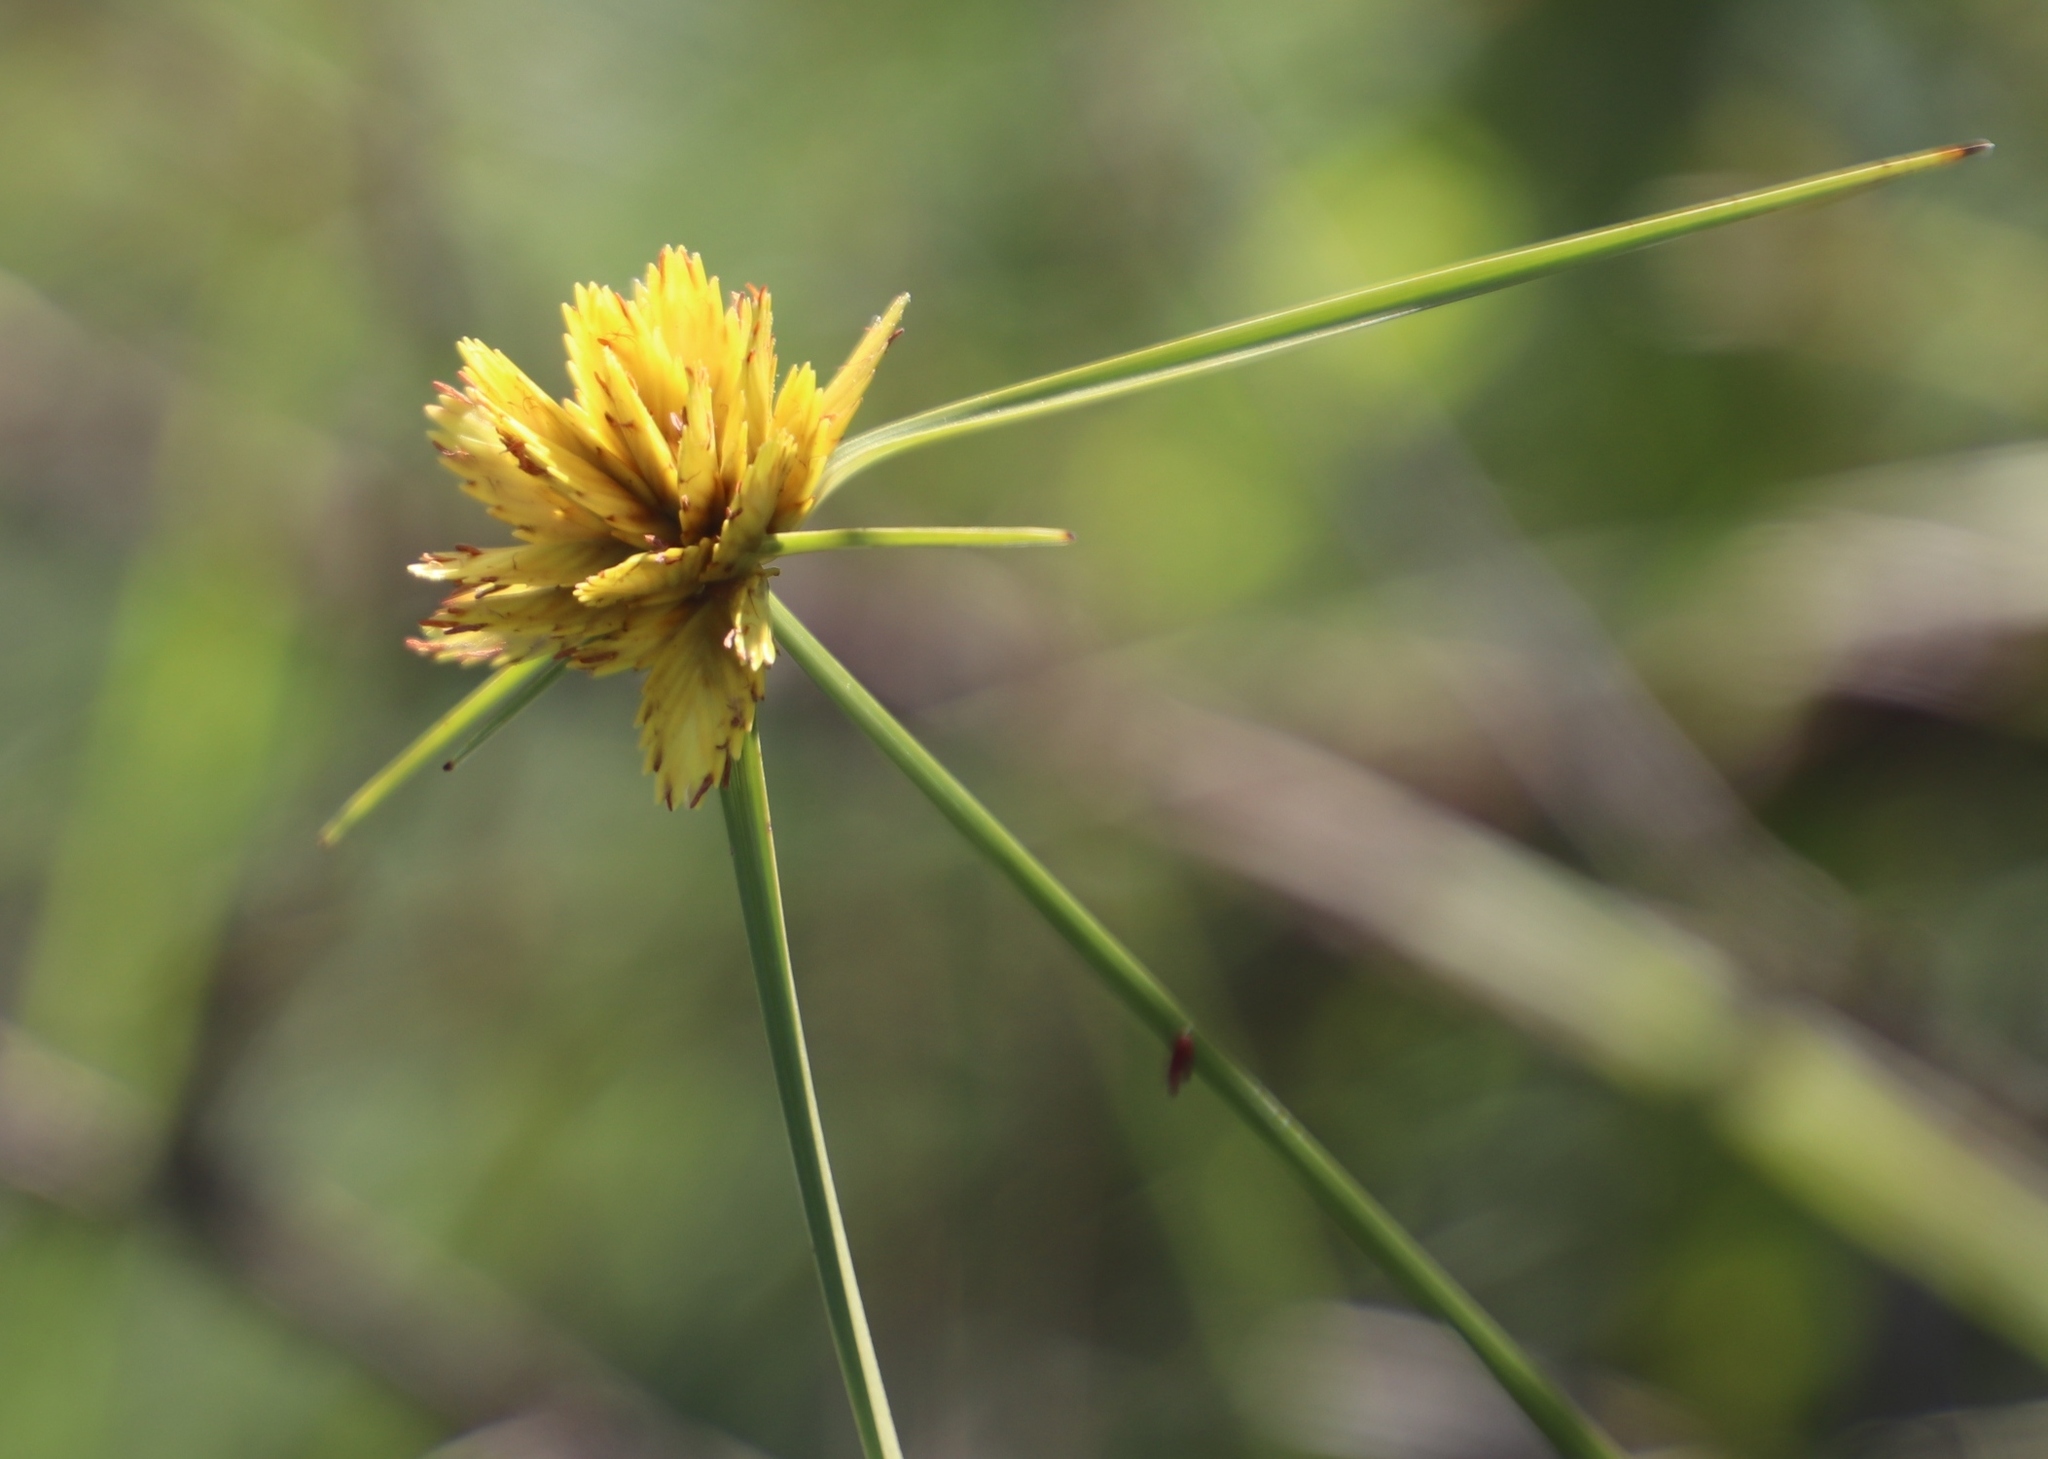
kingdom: Plantae
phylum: Tracheophyta
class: Liliopsida
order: Poales
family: Cyperaceae
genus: Cyperus
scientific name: Cyperus sphaerocephalus
